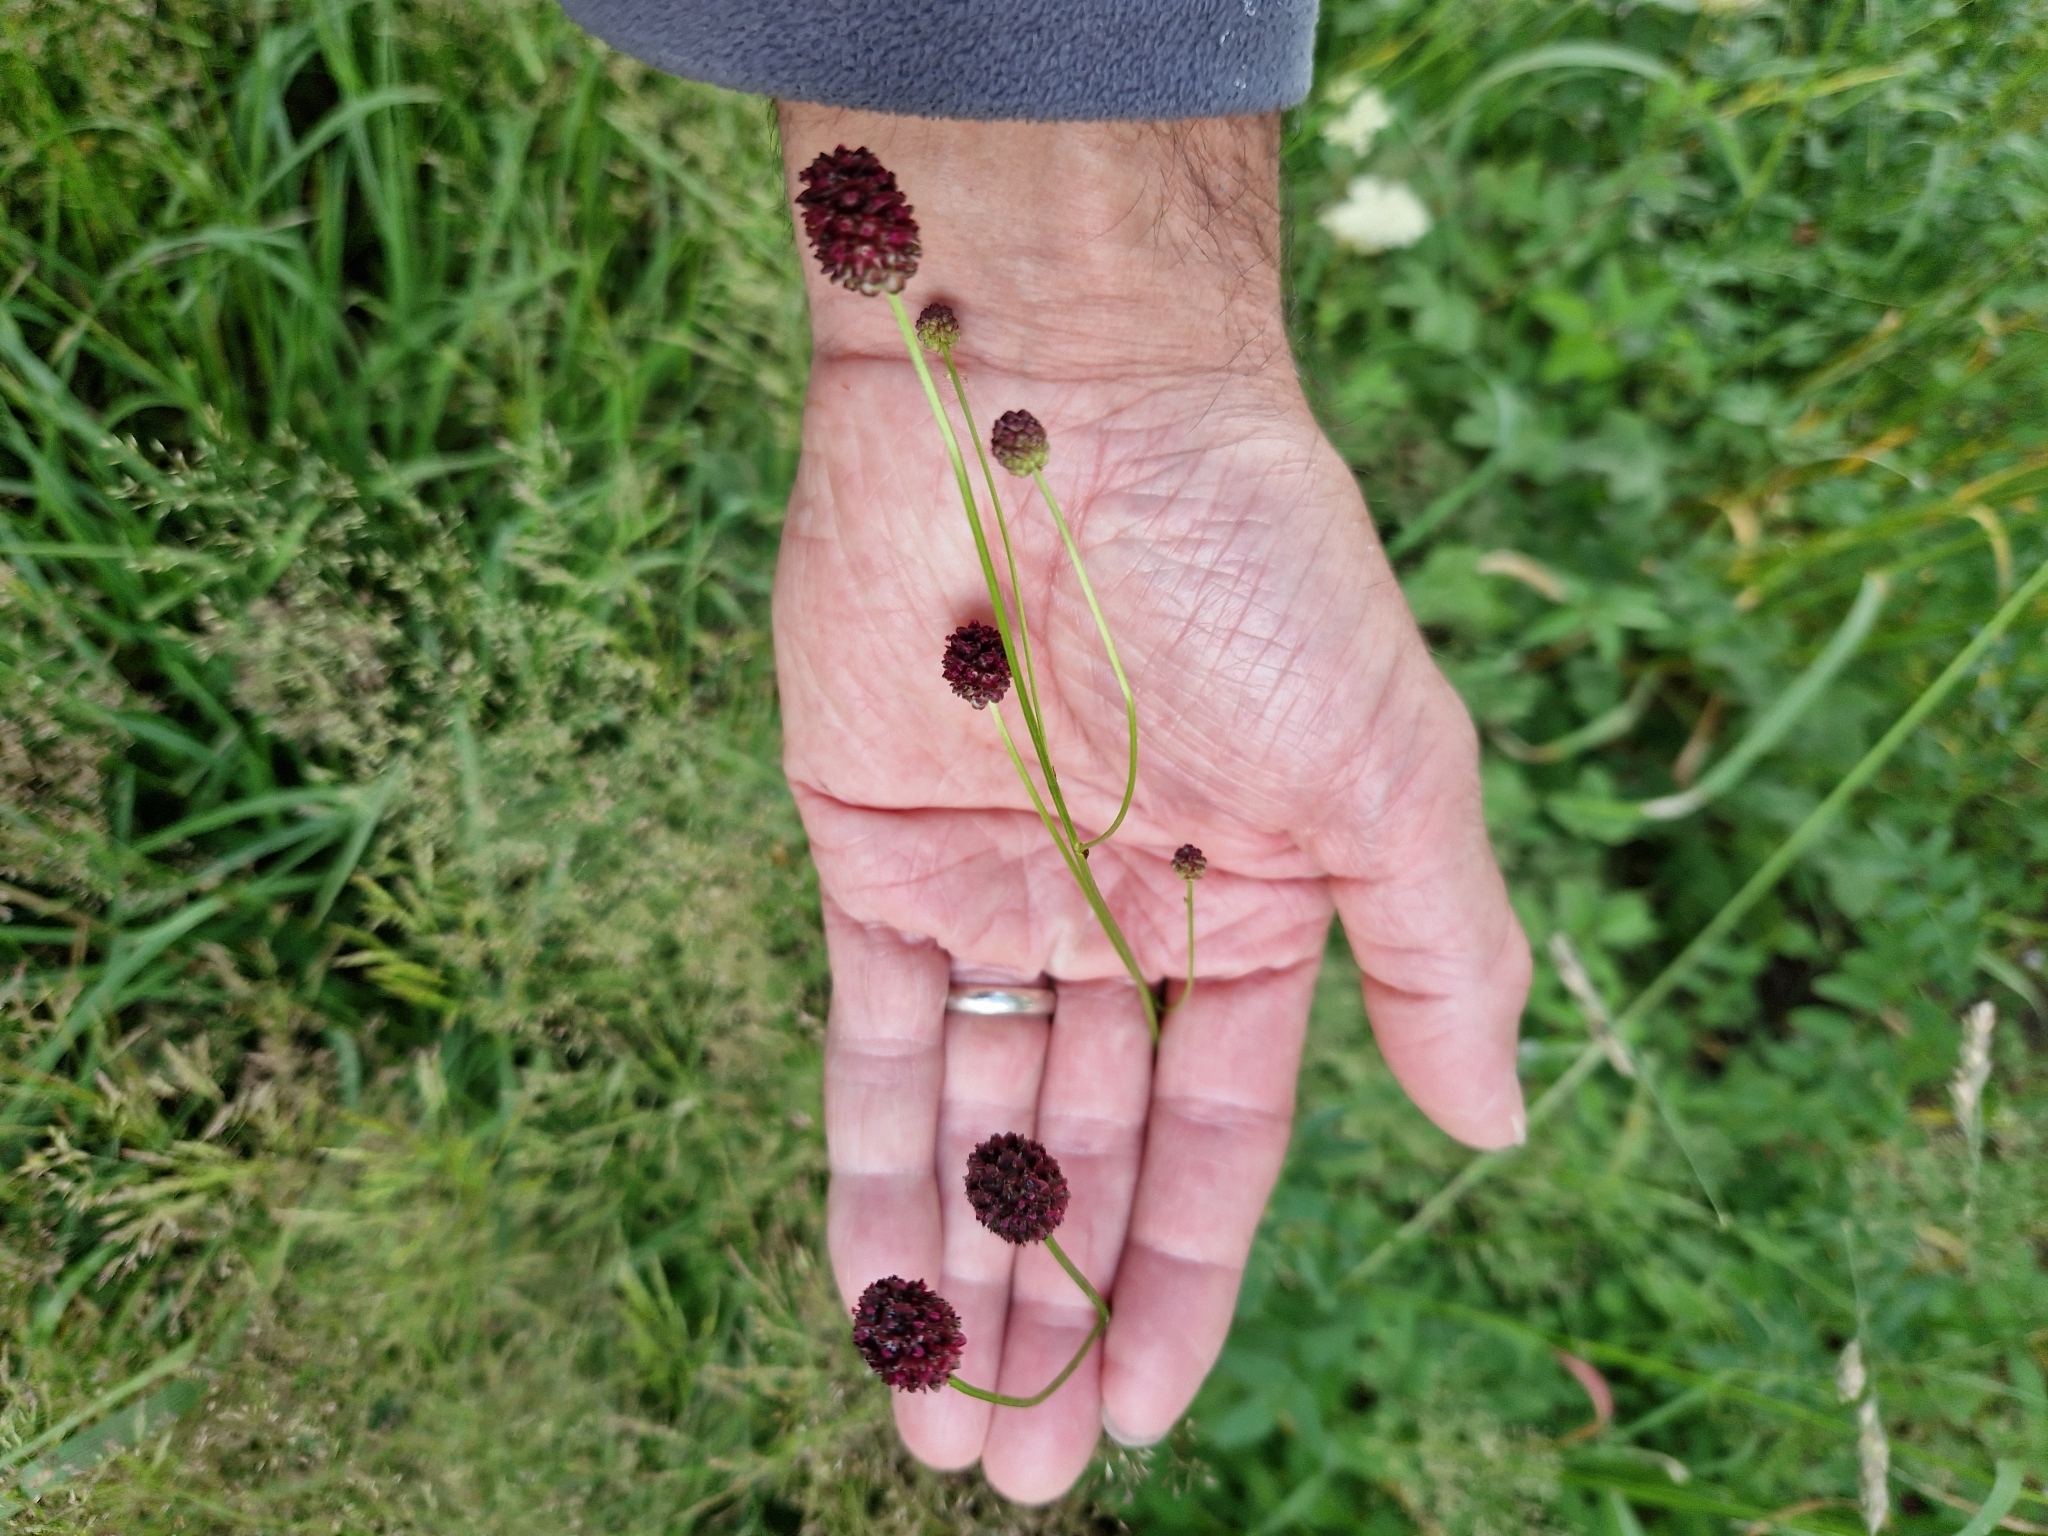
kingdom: Plantae
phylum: Tracheophyta
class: Magnoliopsida
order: Rosales
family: Rosaceae
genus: Sanguisorba
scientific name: Sanguisorba officinalis
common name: Great burnet
